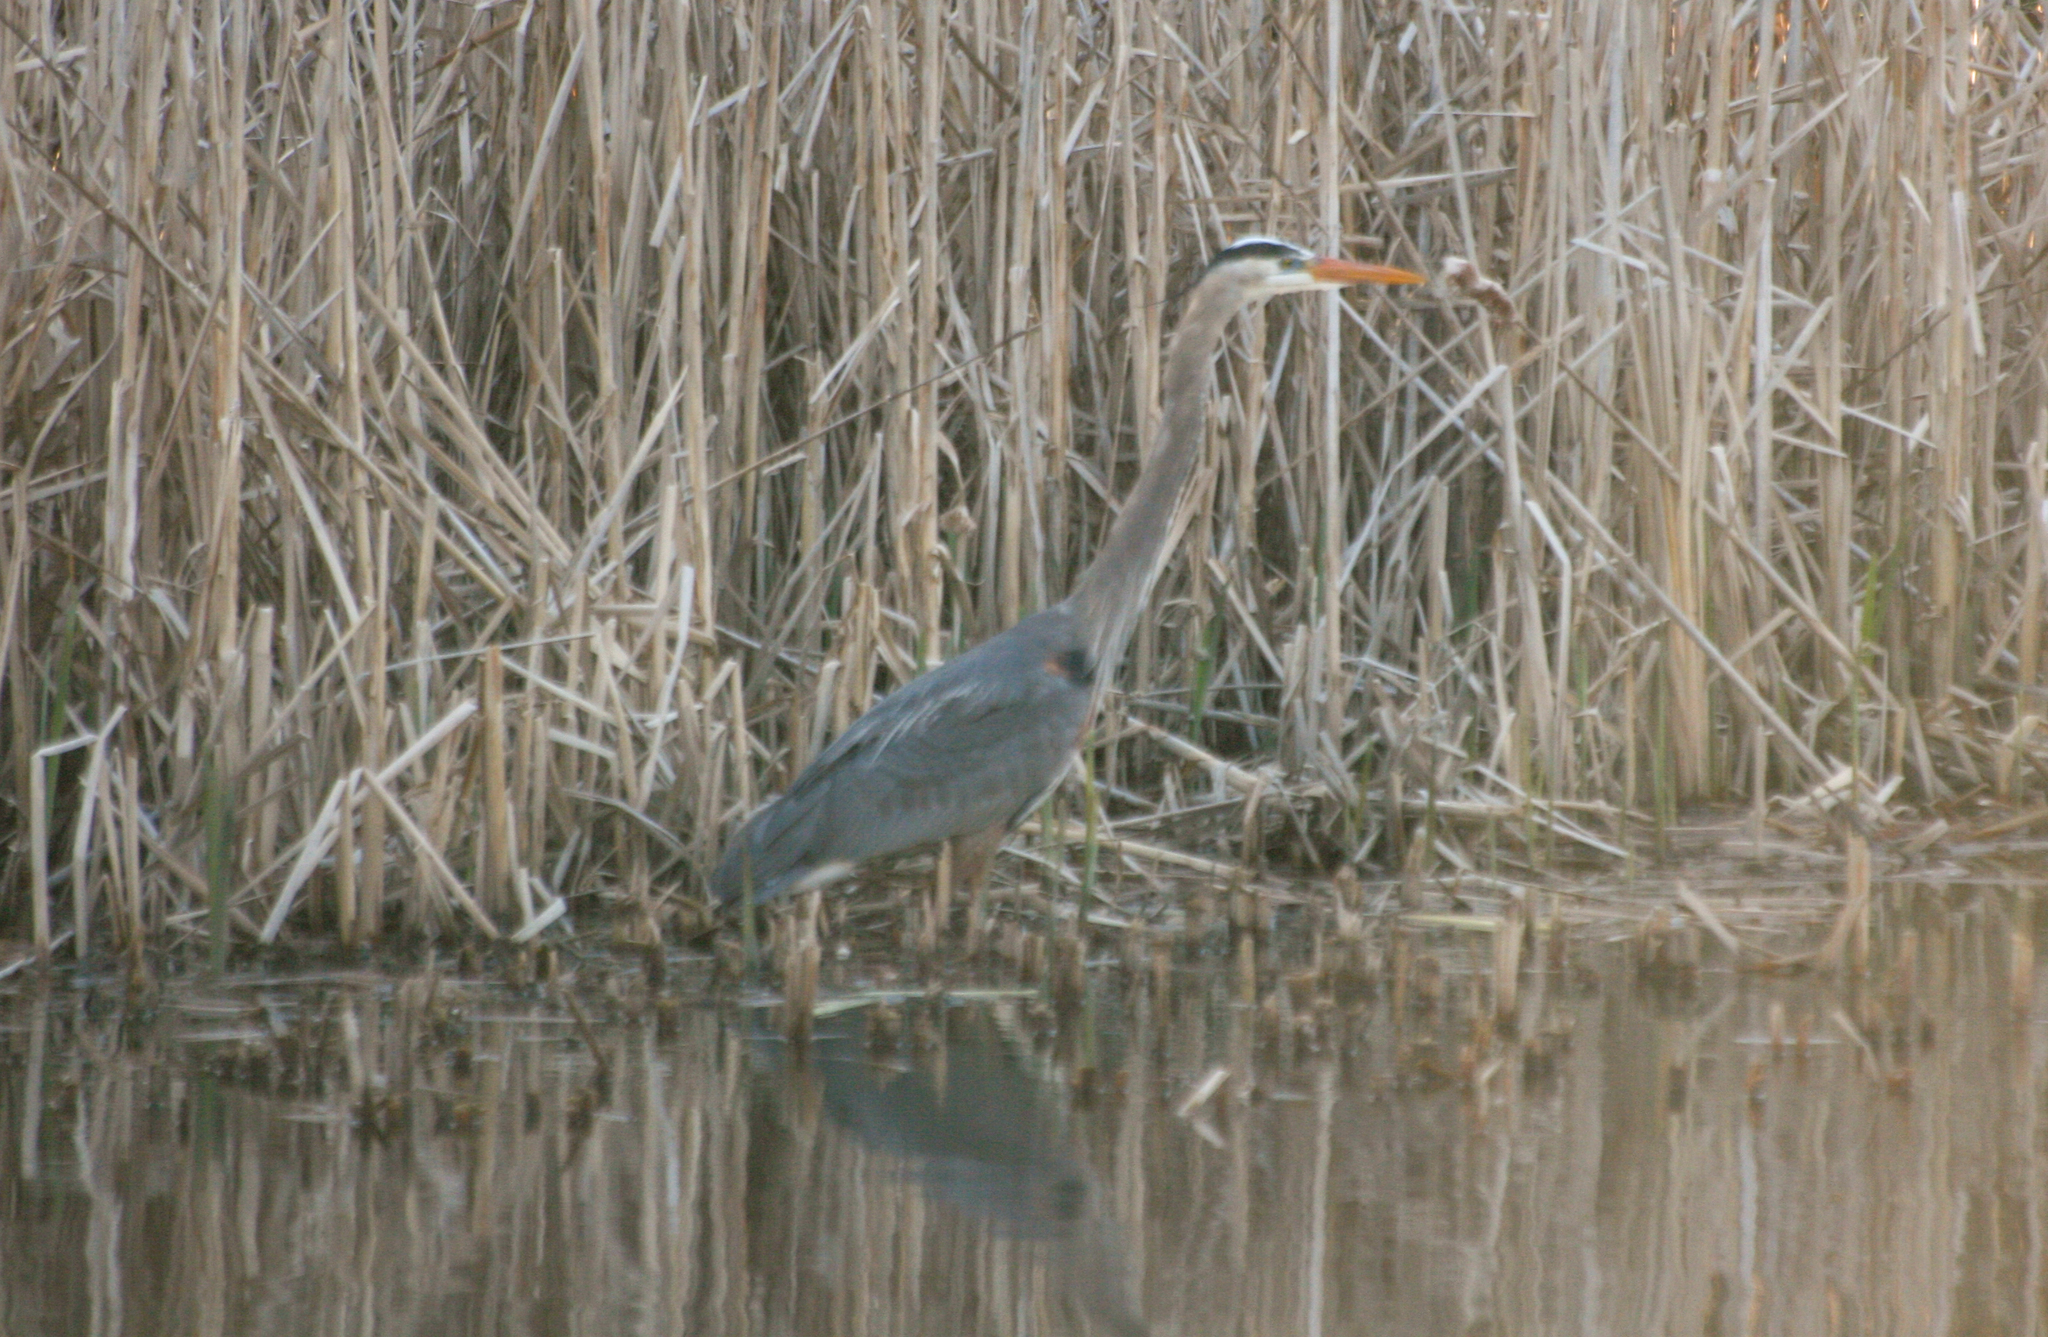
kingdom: Animalia
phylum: Chordata
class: Aves
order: Pelecaniformes
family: Ardeidae
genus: Ardea
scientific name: Ardea herodias
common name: Great blue heron
